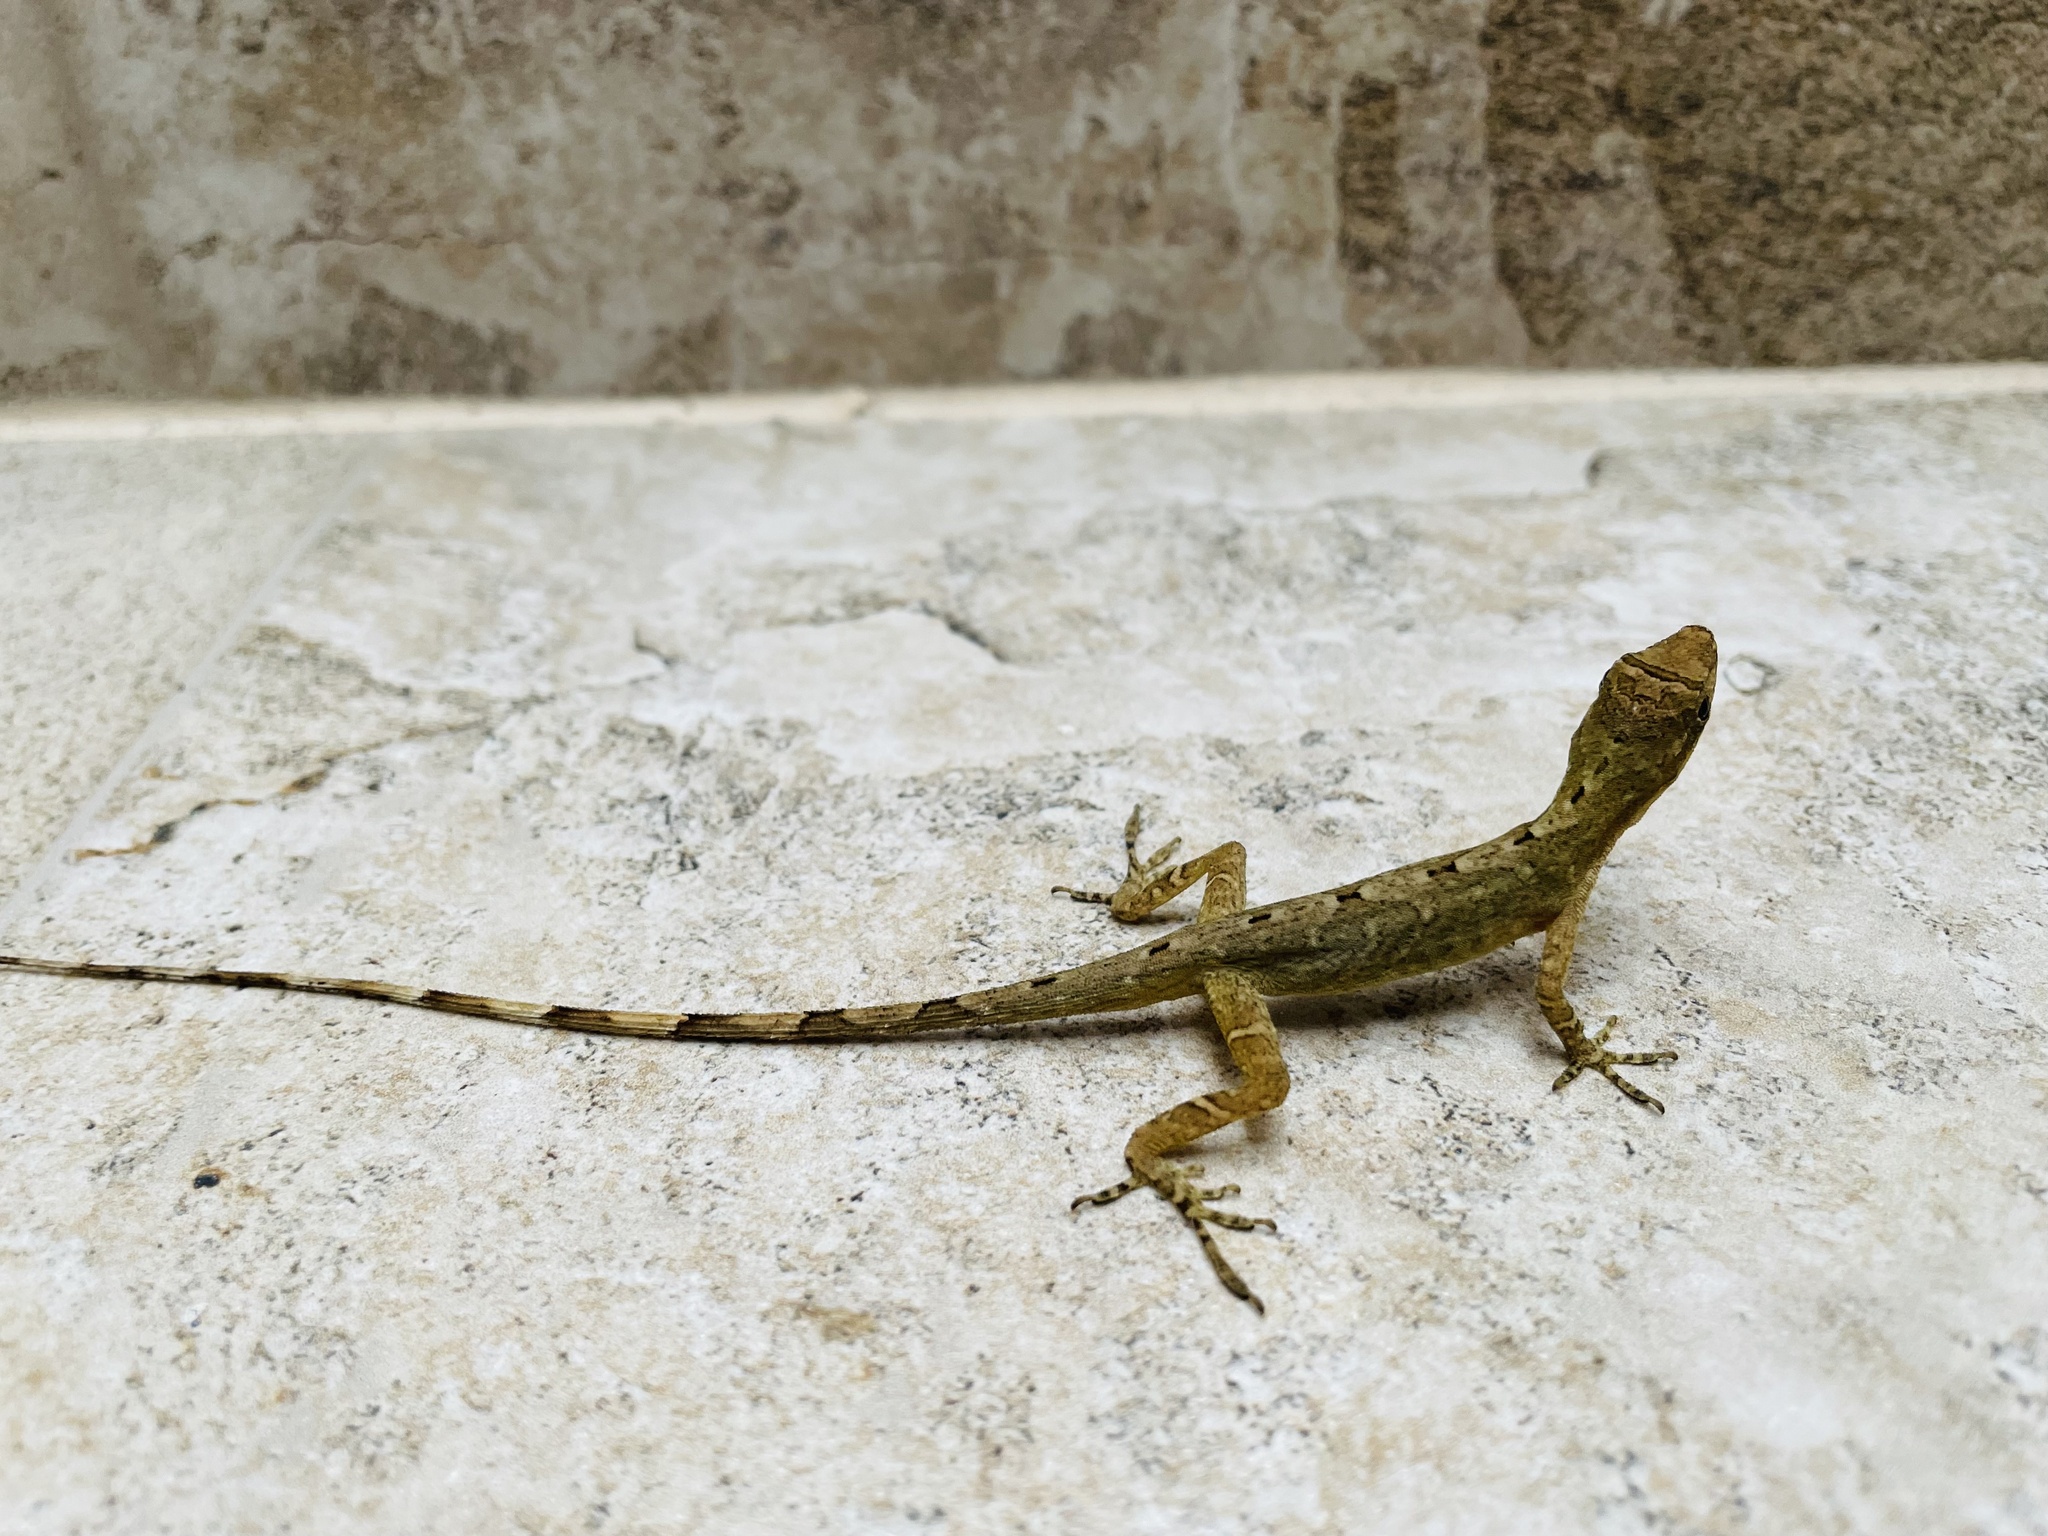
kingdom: Animalia
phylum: Chordata
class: Squamata
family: Dactyloidae
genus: Anolis
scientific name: Anolis antonii
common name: Anton's anole
